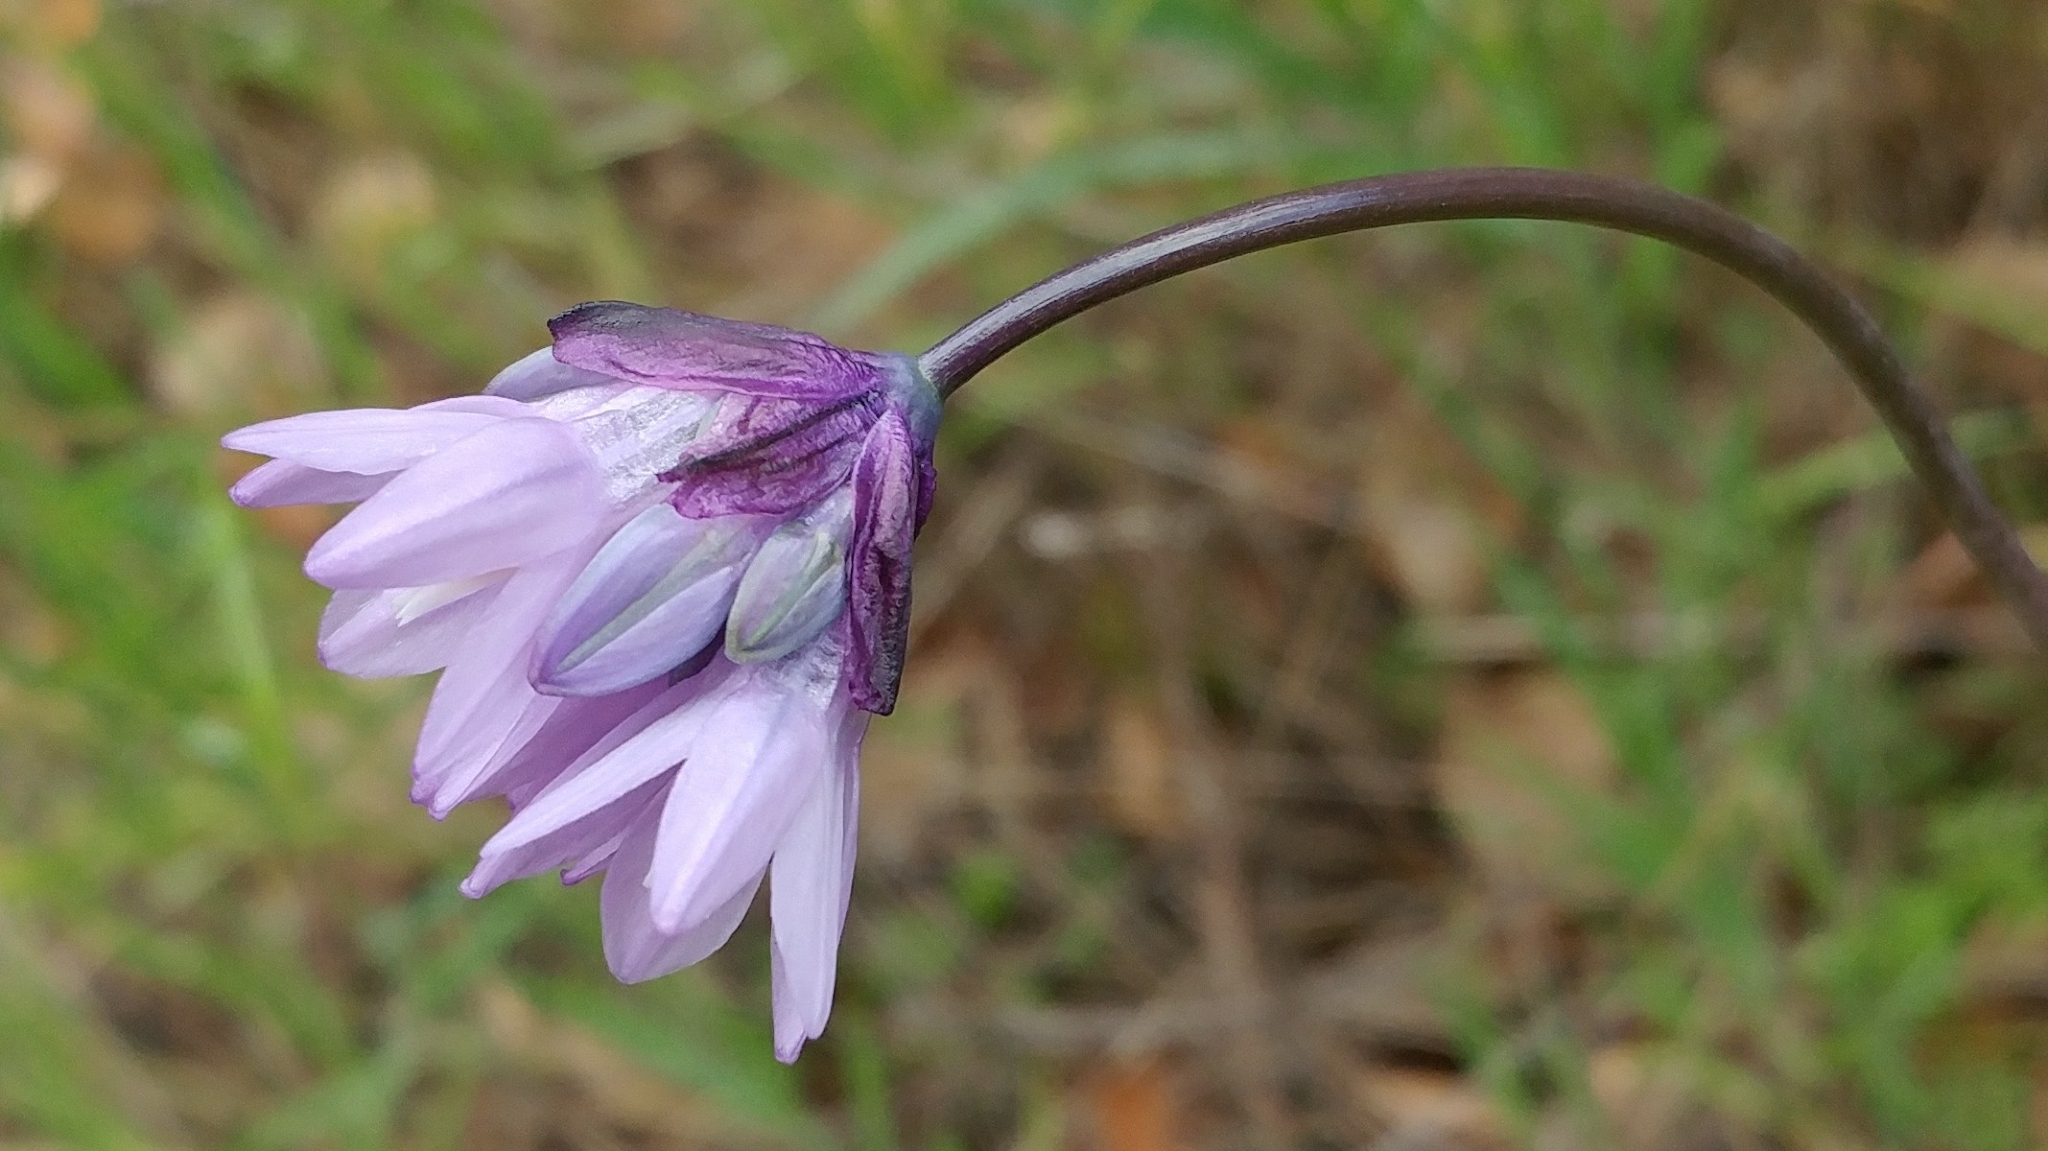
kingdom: Plantae
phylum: Tracheophyta
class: Liliopsida
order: Asparagales
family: Asparagaceae
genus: Dipterostemon
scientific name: Dipterostemon capitatus
